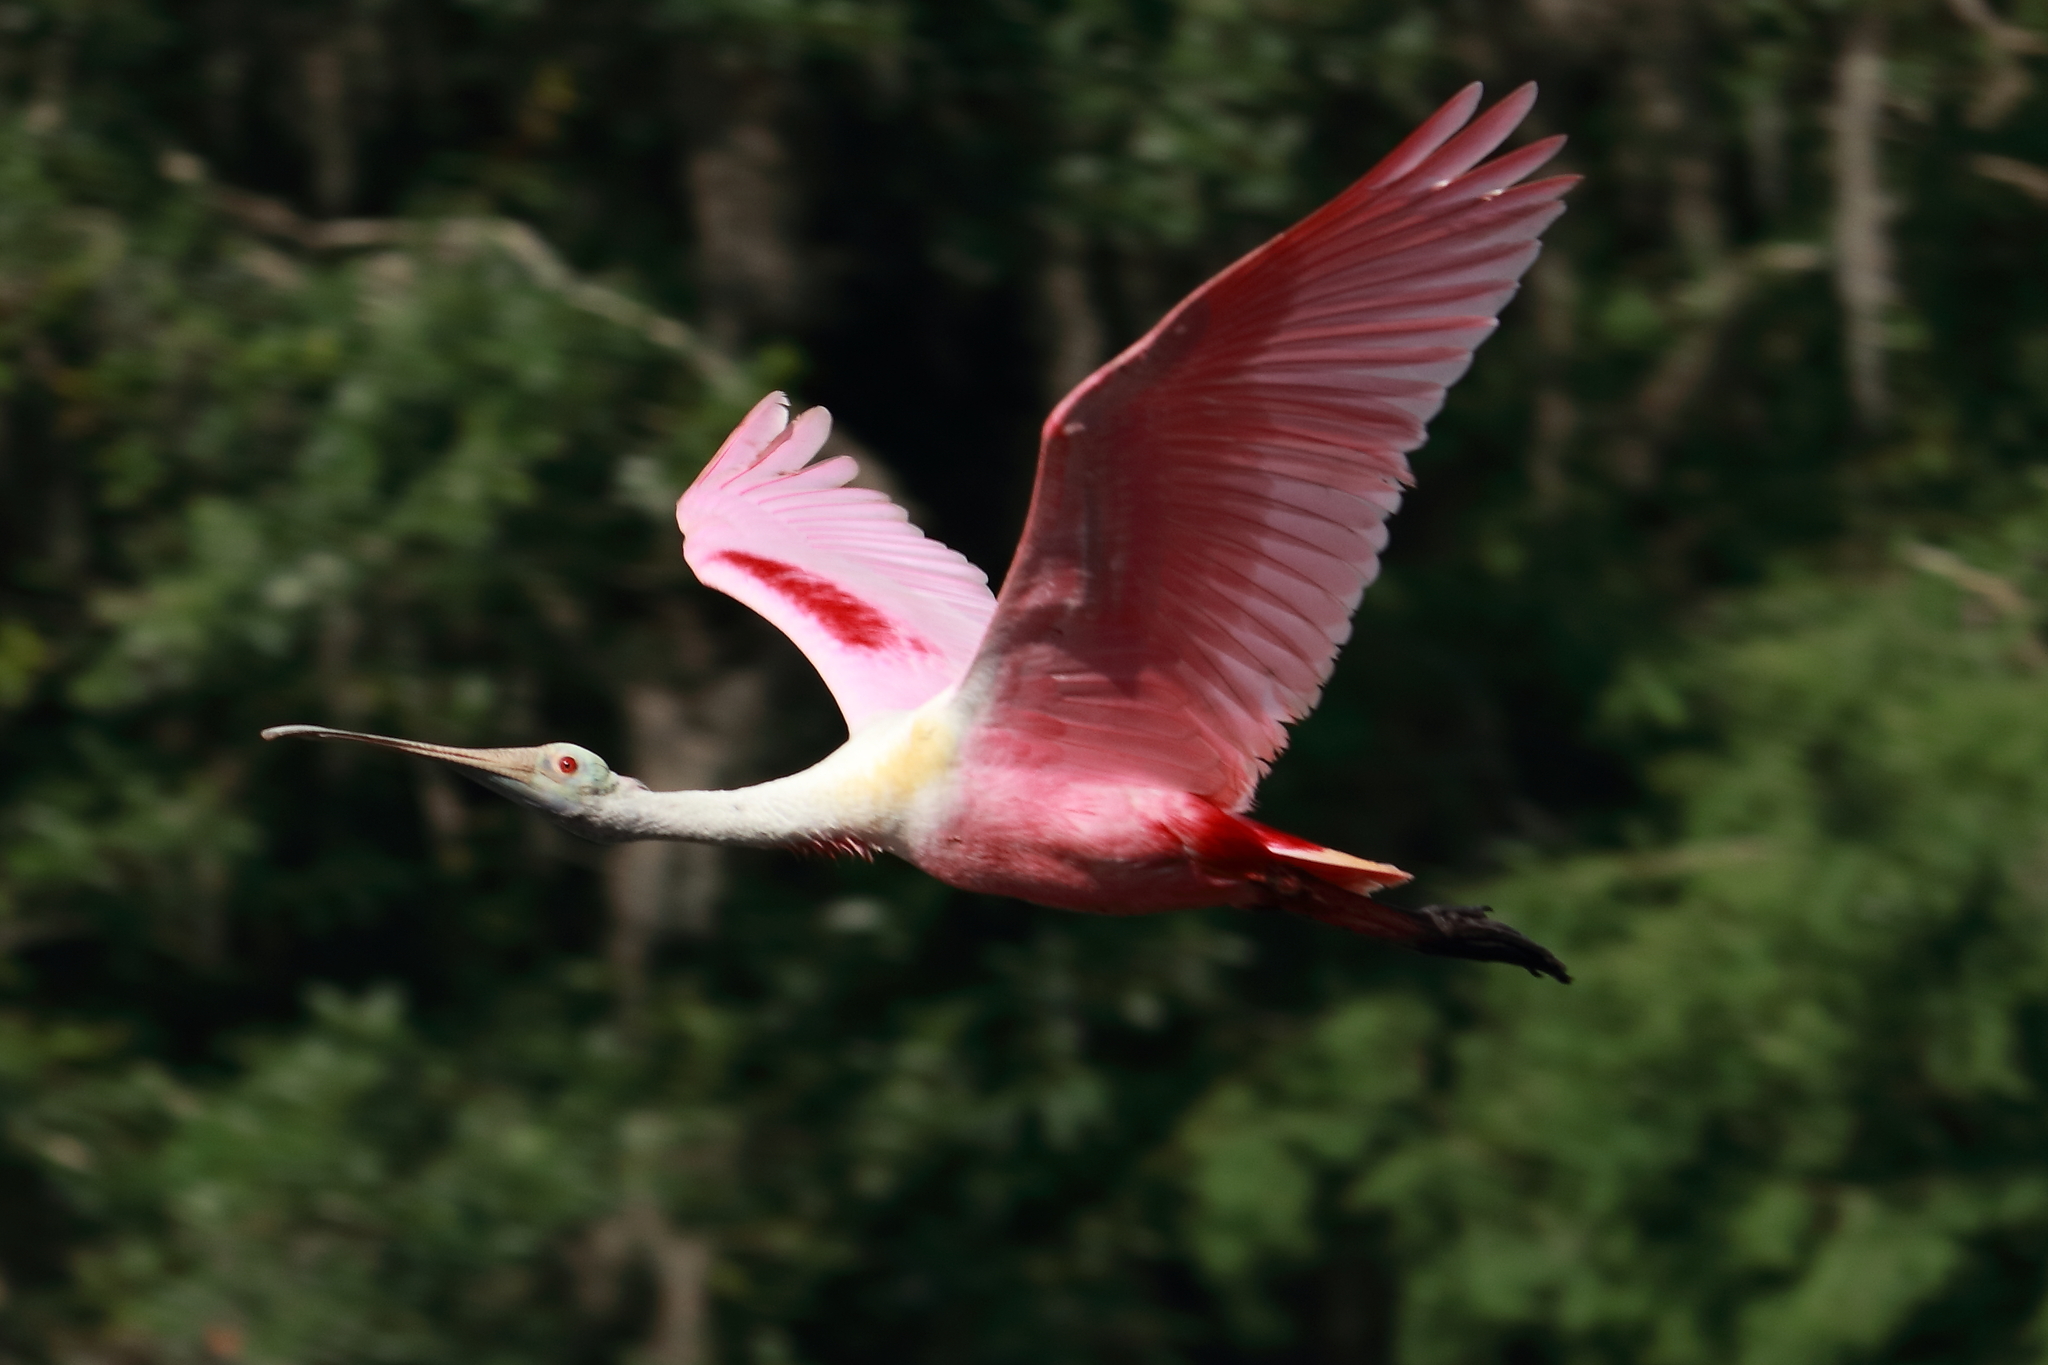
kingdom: Animalia
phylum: Chordata
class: Aves
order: Pelecaniformes
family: Threskiornithidae
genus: Platalea
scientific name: Platalea ajaja
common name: Roseate spoonbill
